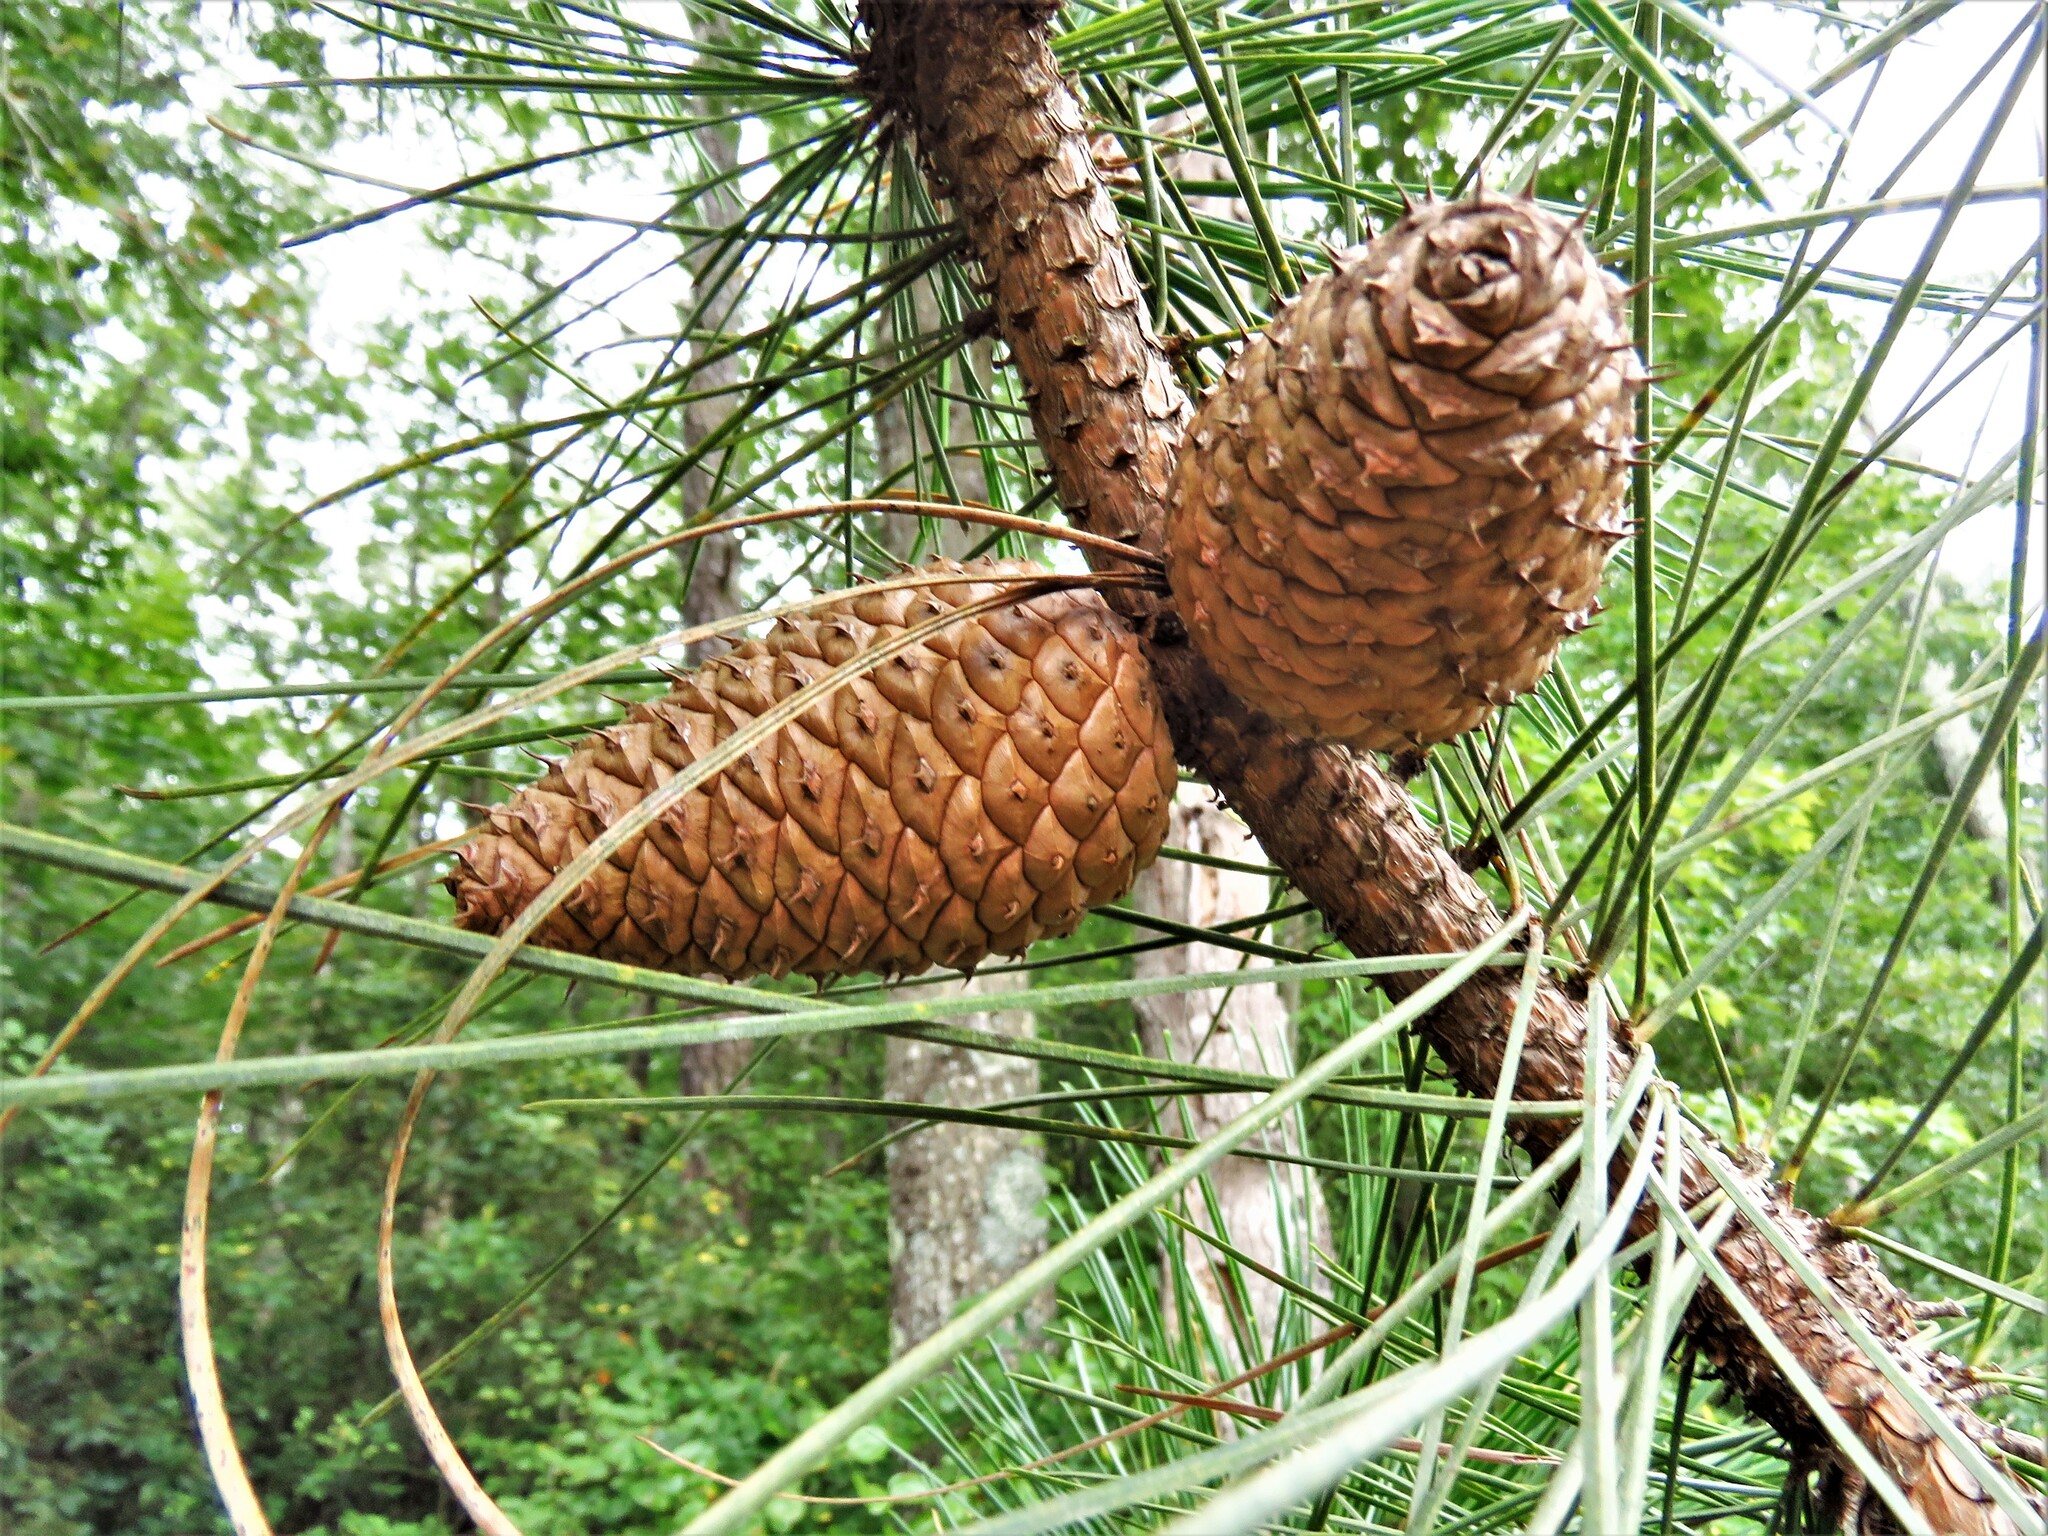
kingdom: Plantae
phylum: Tracheophyta
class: Pinopsida
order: Pinales
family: Pinaceae
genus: Pinus
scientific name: Pinus rigida
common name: Pitch pine
